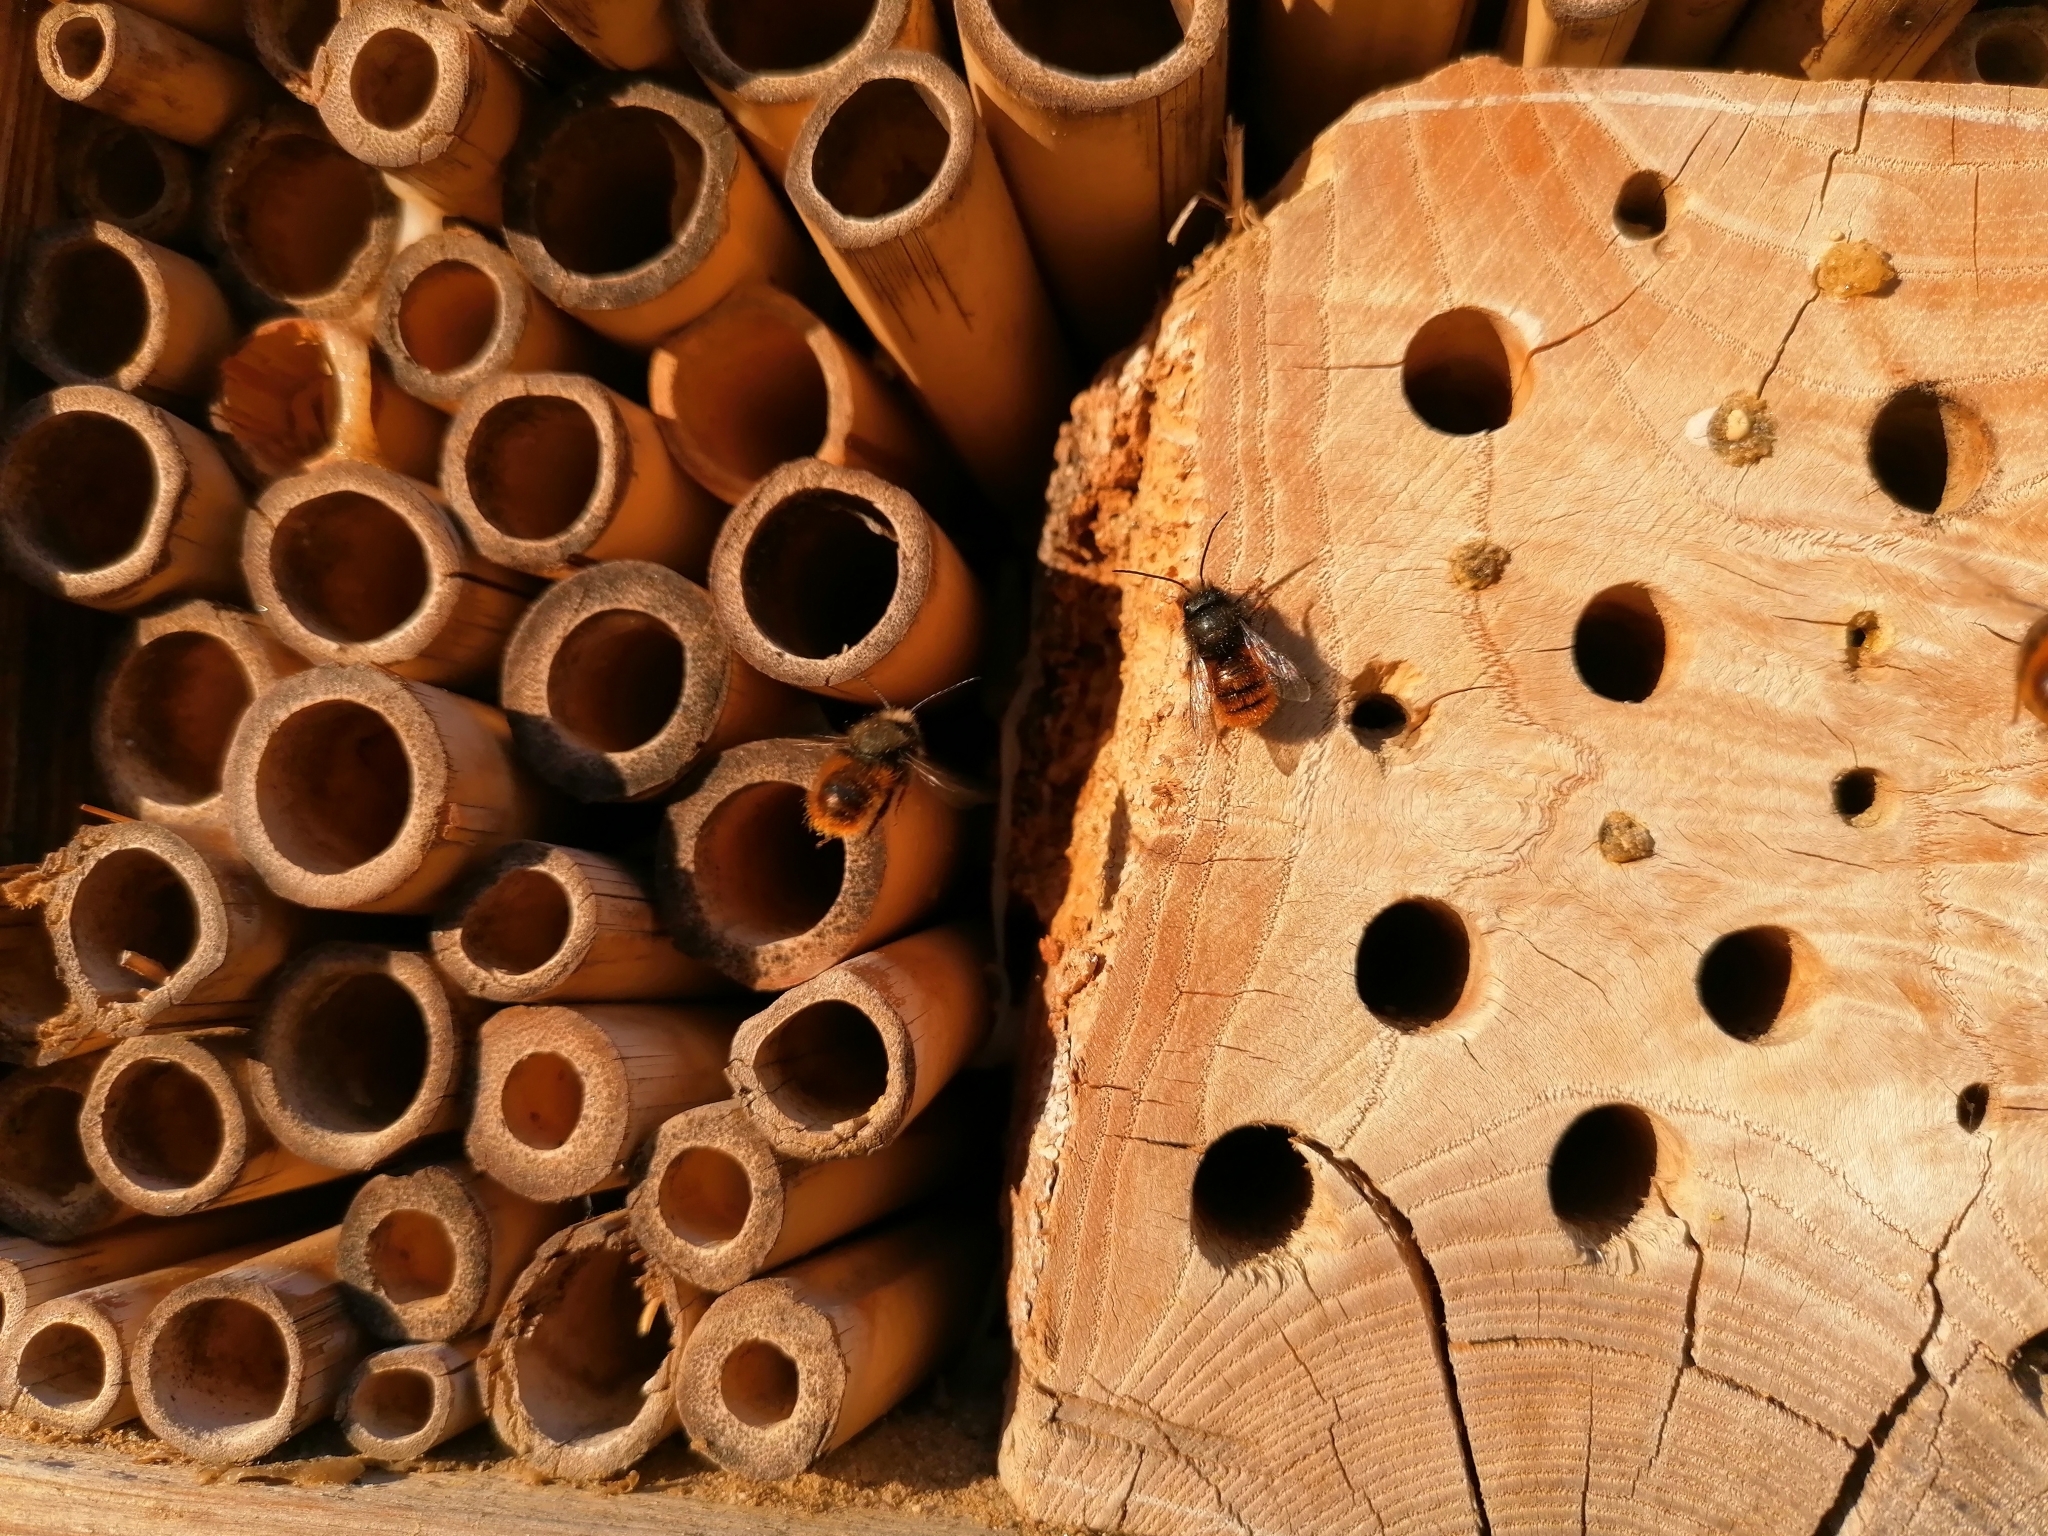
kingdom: Animalia
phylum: Arthropoda
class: Insecta
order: Hymenoptera
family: Megachilidae
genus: Osmia
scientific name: Osmia cornuta
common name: Mason bee
